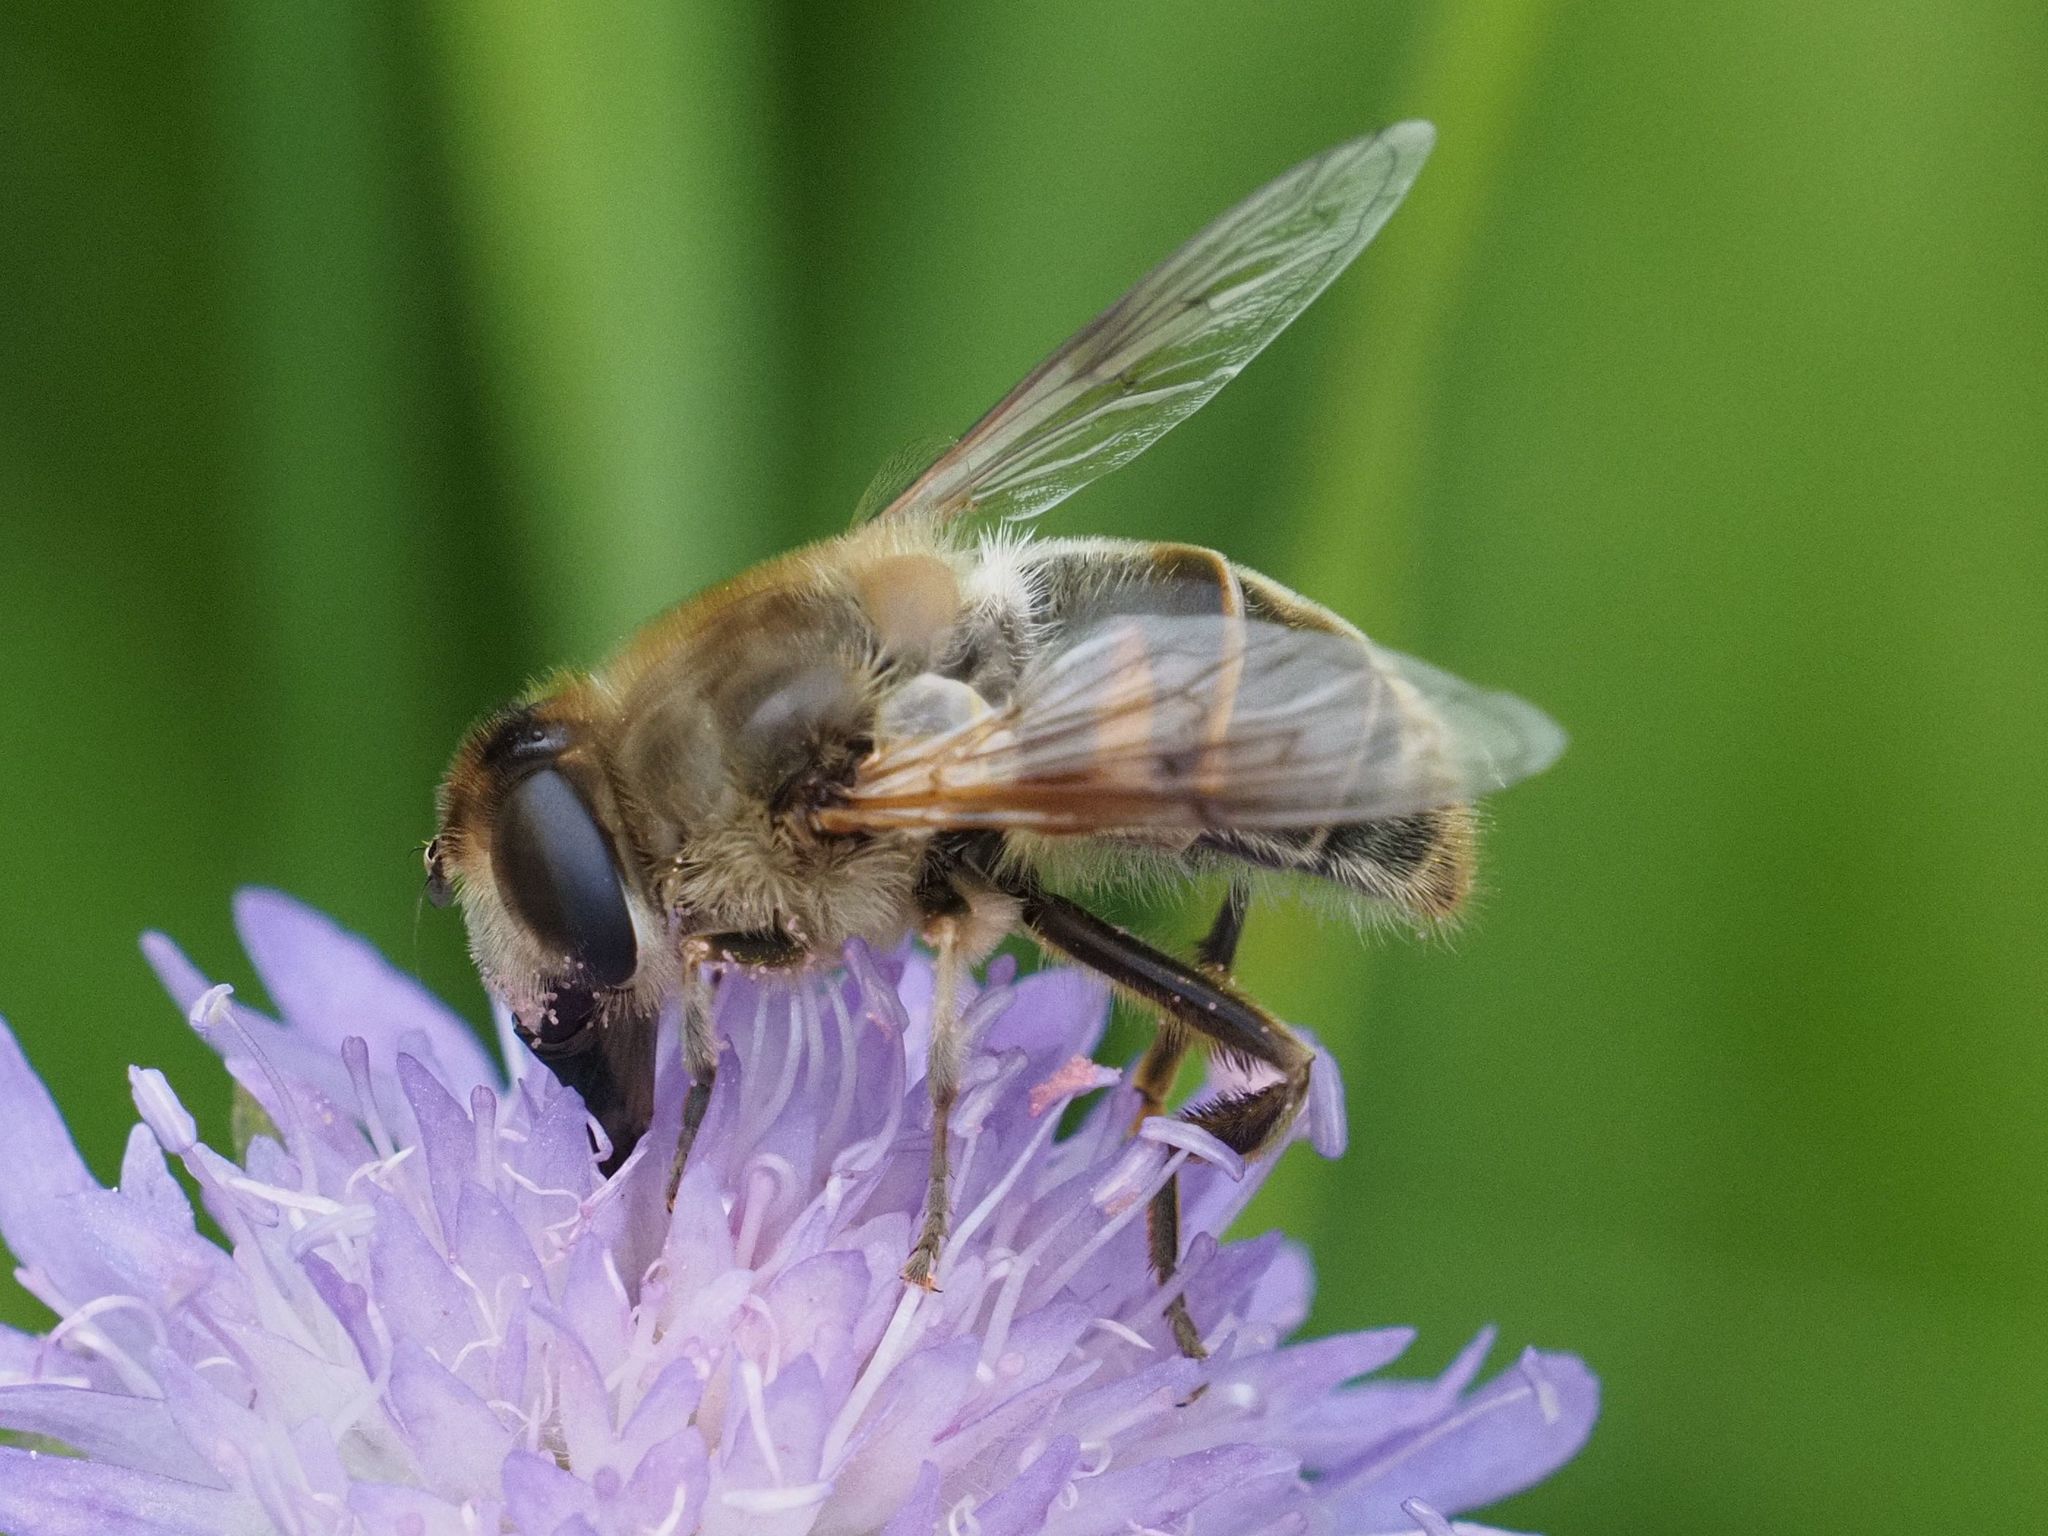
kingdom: Animalia
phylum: Arthropoda
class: Insecta
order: Diptera
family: Syrphidae
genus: Eristalis
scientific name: Eristalis tenax
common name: Drone fly
